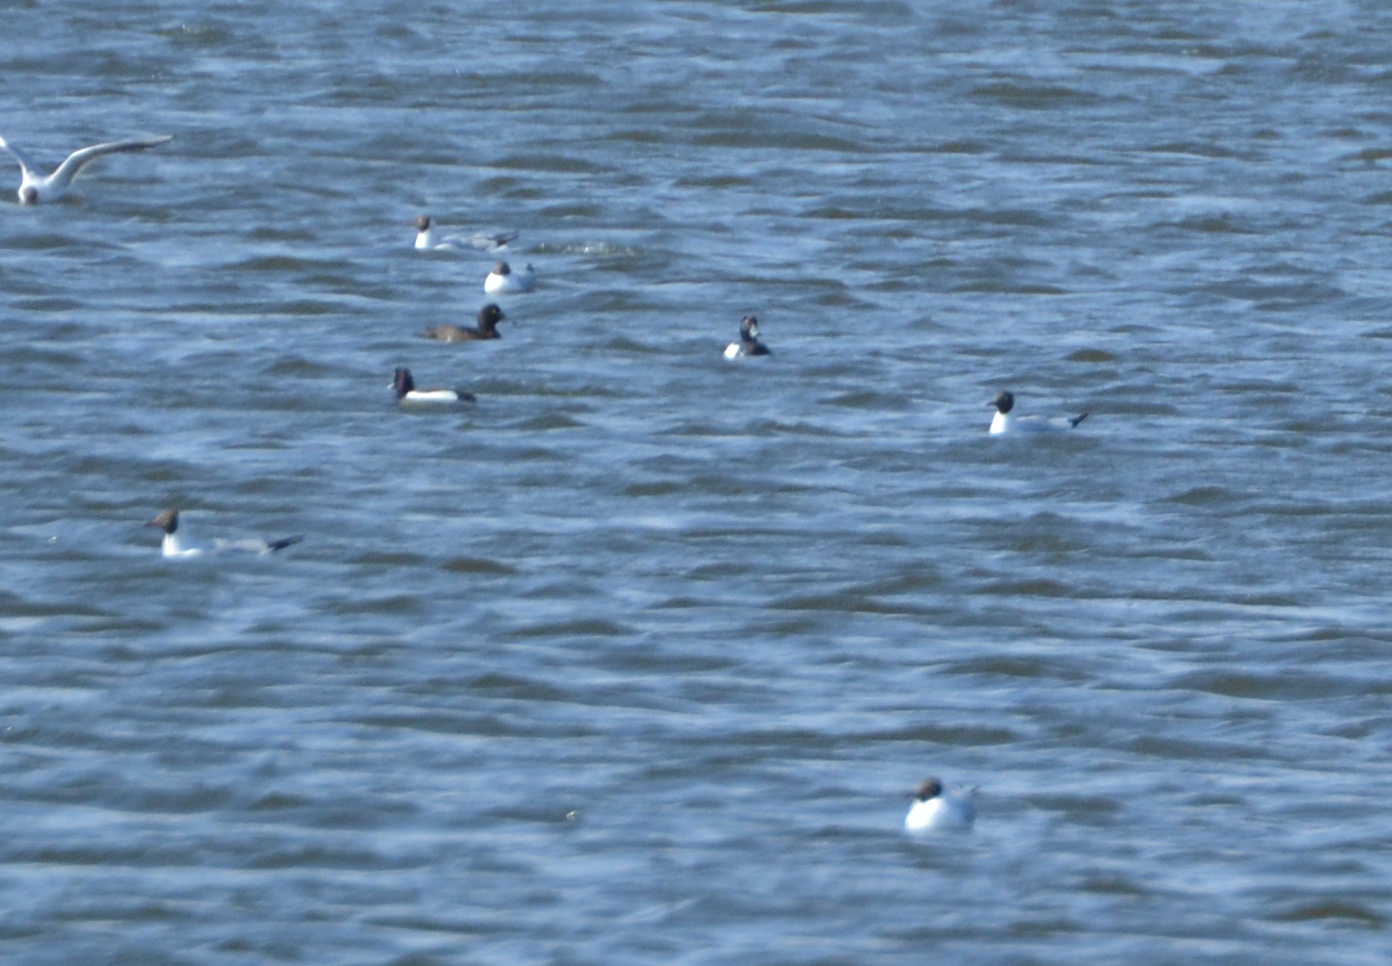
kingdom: Animalia
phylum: Chordata
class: Aves
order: Anseriformes
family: Anatidae
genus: Aythya
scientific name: Aythya fuligula
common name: Tufted duck
